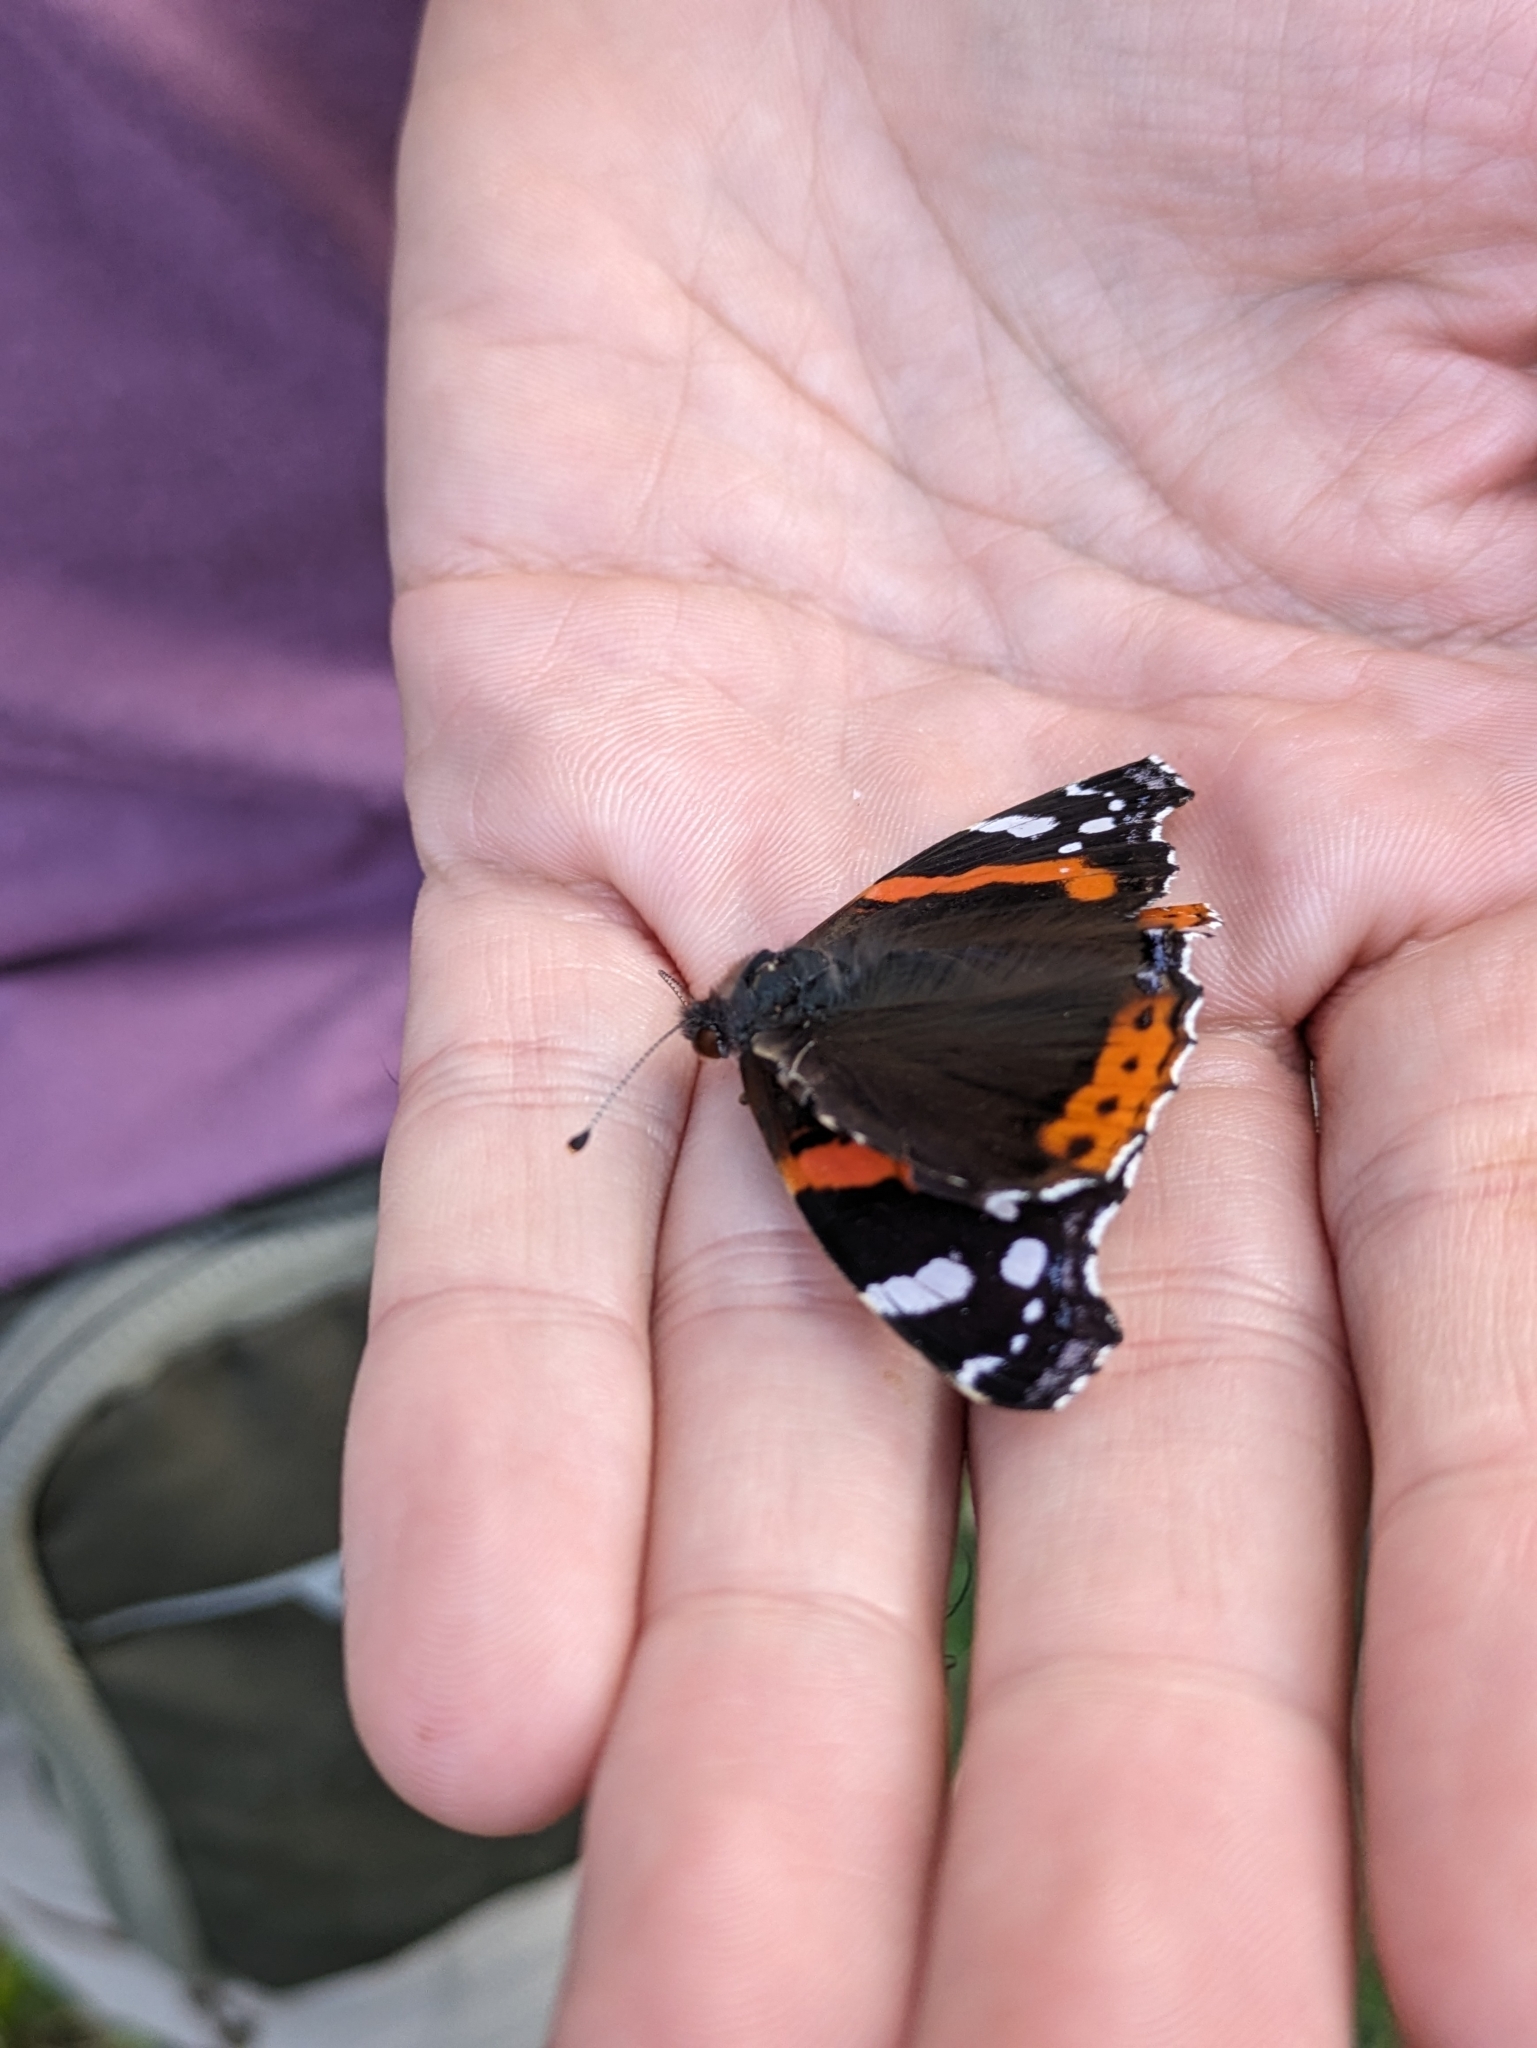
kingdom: Animalia
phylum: Arthropoda
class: Insecta
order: Lepidoptera
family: Nymphalidae
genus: Vanessa
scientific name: Vanessa atalanta
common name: Red admiral
